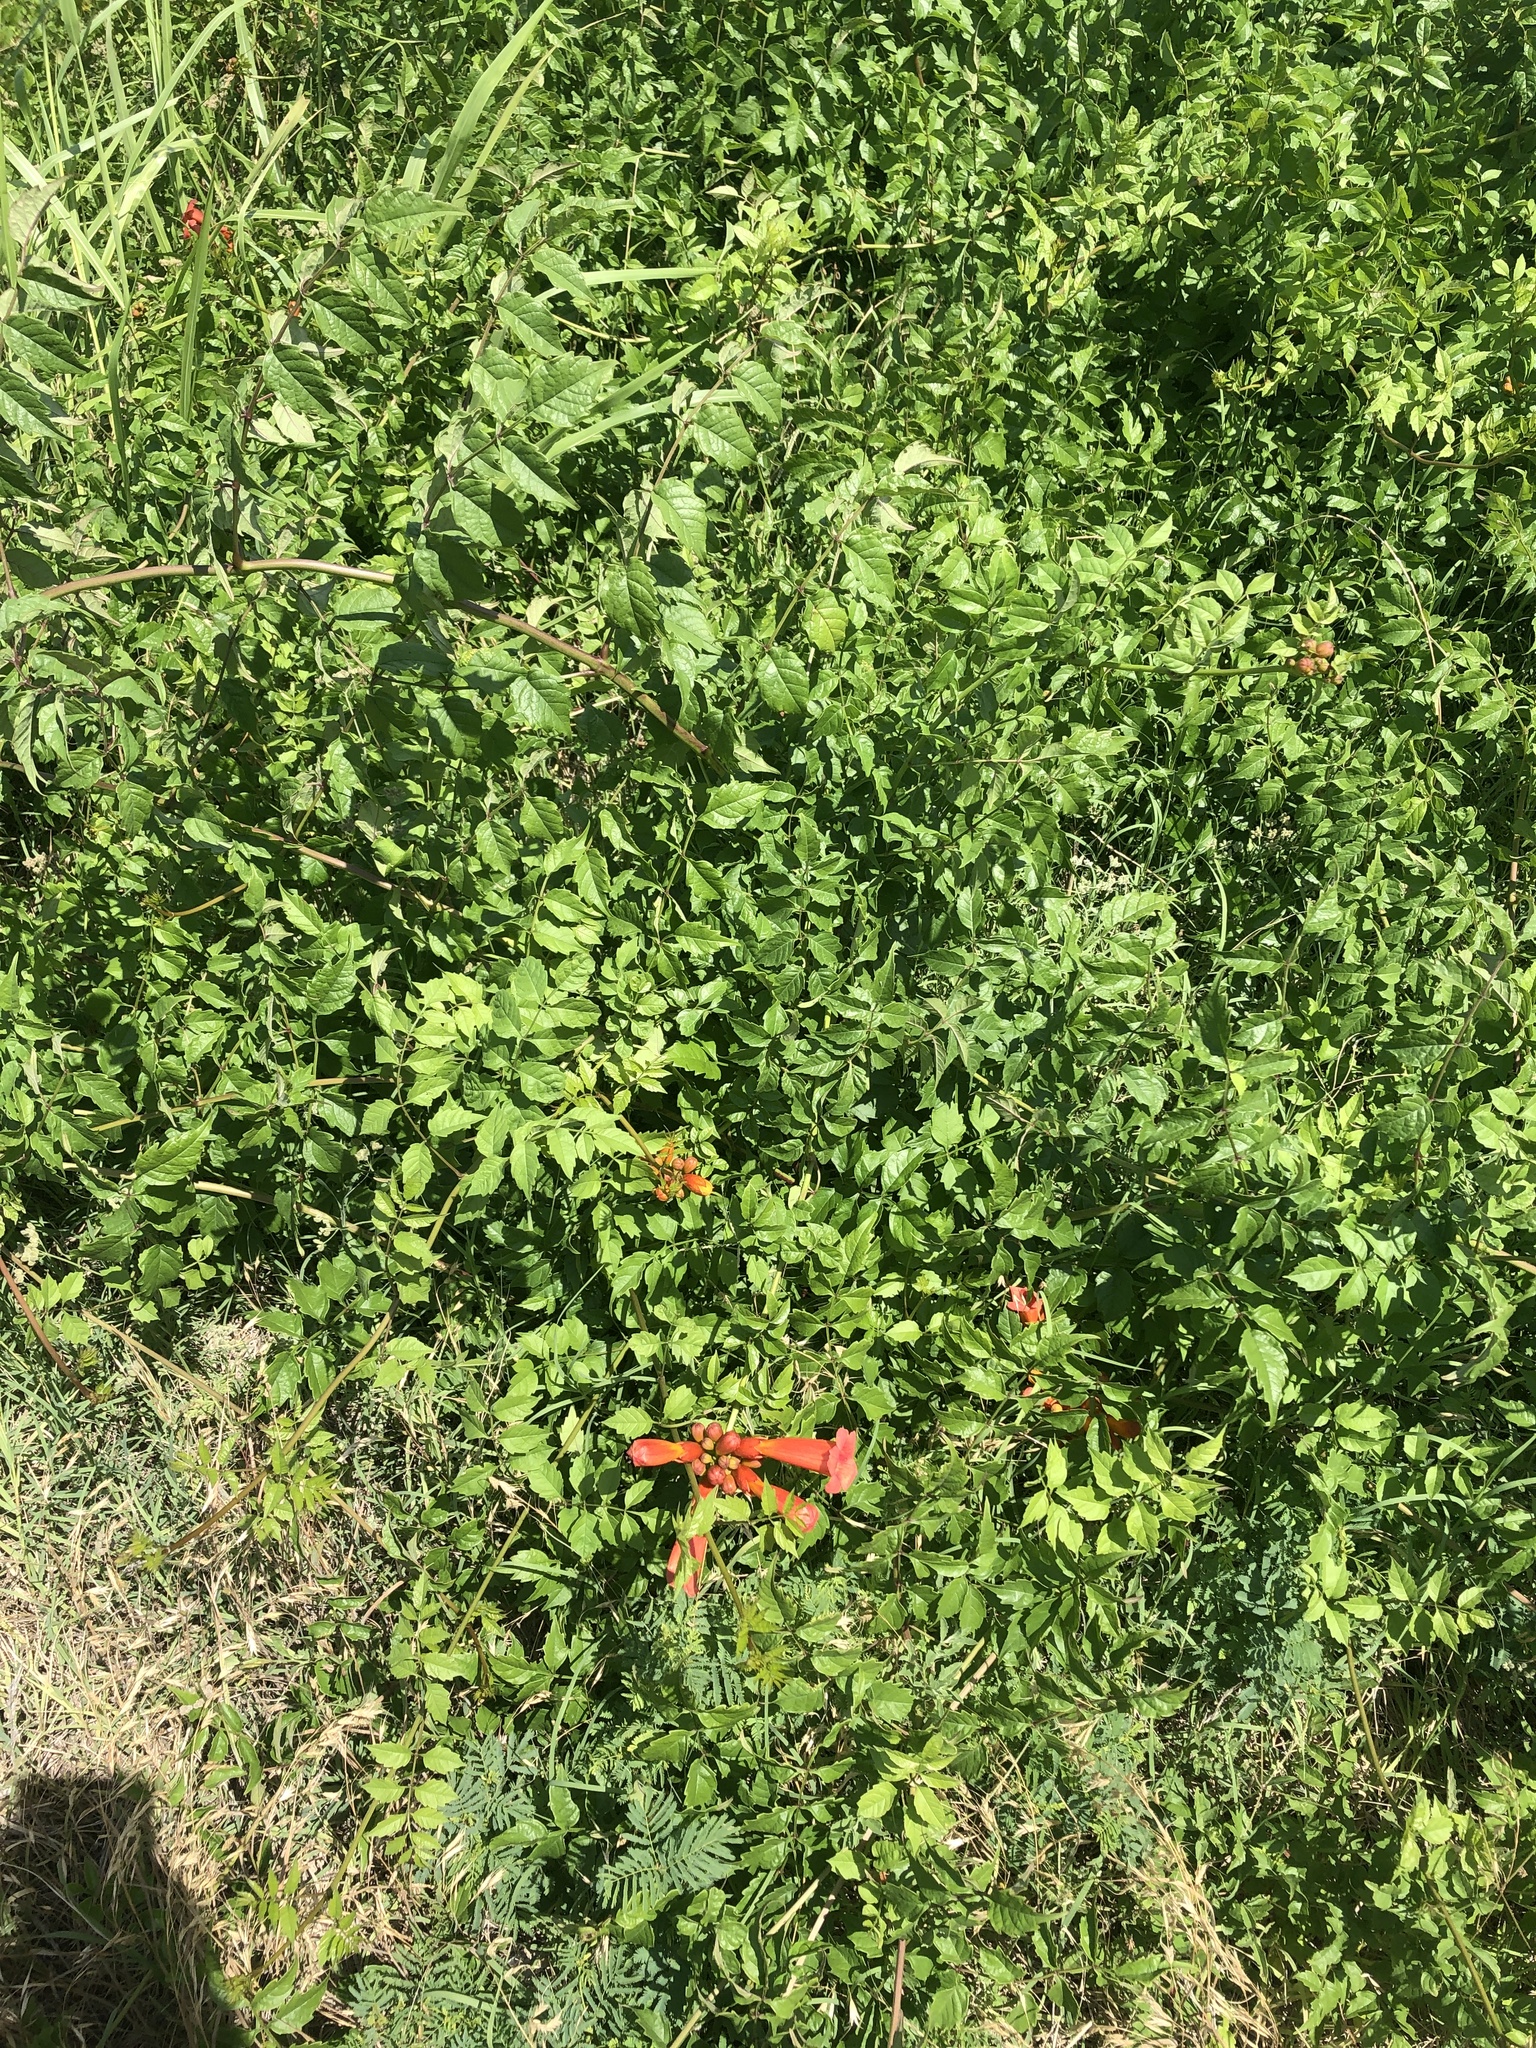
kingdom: Plantae
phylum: Tracheophyta
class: Magnoliopsida
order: Lamiales
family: Bignoniaceae
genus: Campsis
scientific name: Campsis radicans
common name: Trumpet-creeper
